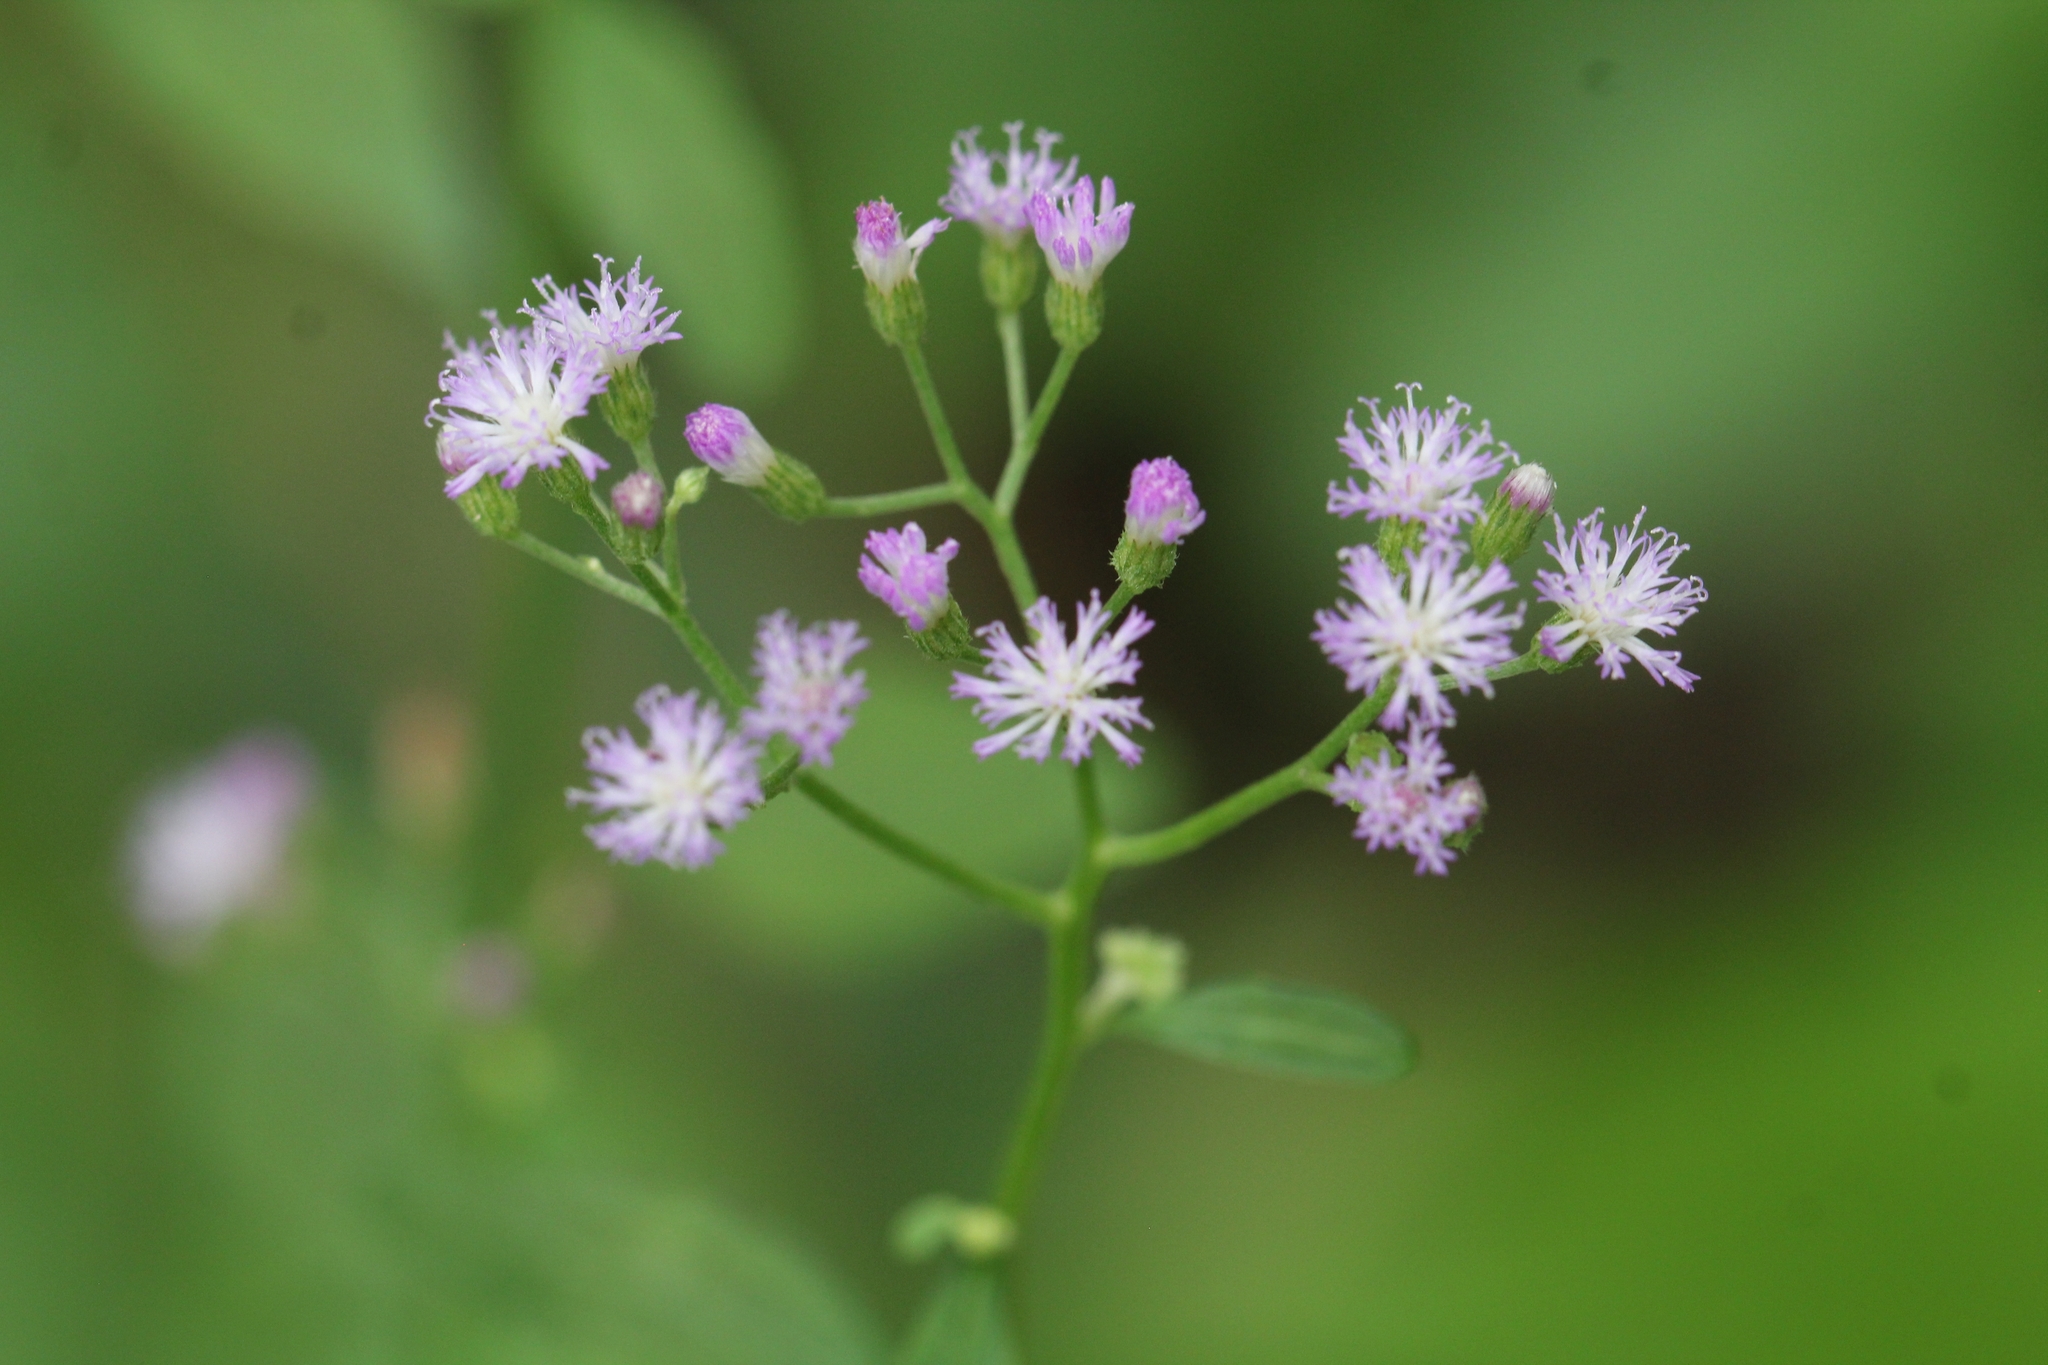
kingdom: Plantae
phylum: Tracheophyta
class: Magnoliopsida
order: Asterales
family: Asteraceae
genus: Cyanthillium
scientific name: Cyanthillium cinereum
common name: Little ironweed
